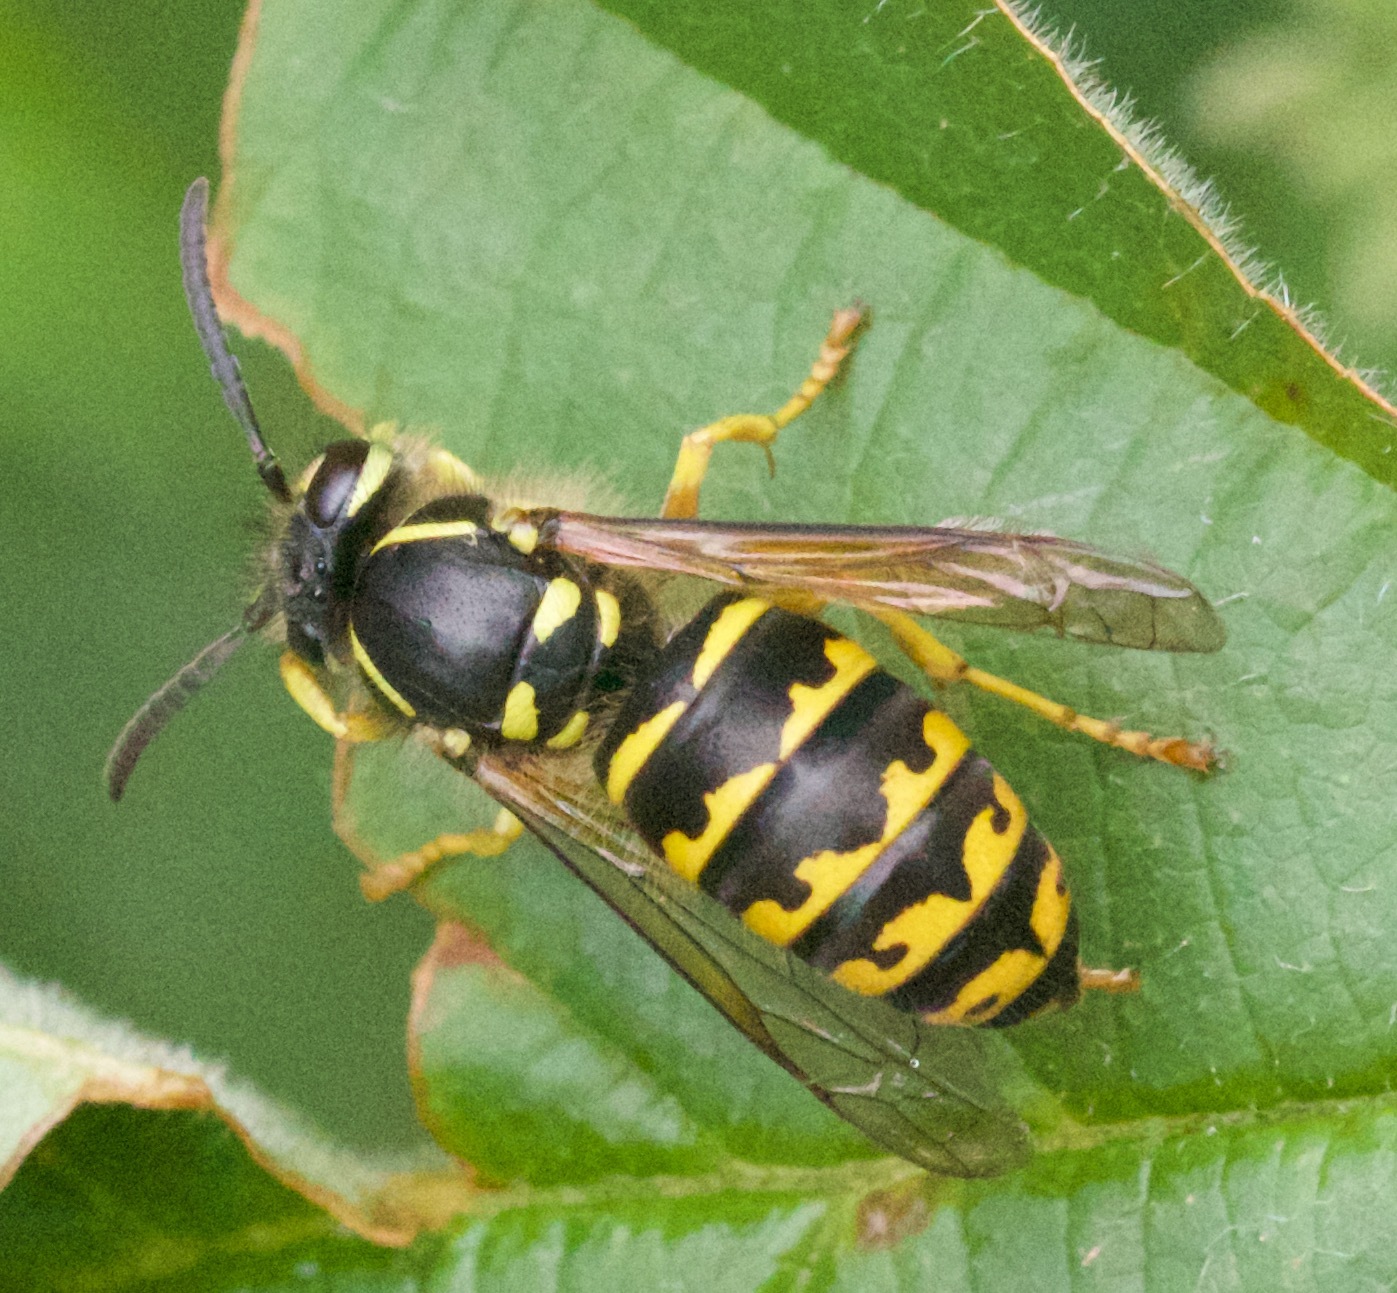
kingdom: Animalia
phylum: Arthropoda
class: Insecta
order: Hymenoptera
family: Vespidae
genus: Dolichovespula
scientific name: Dolichovespula arenaria
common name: Aerial yellowjacket
